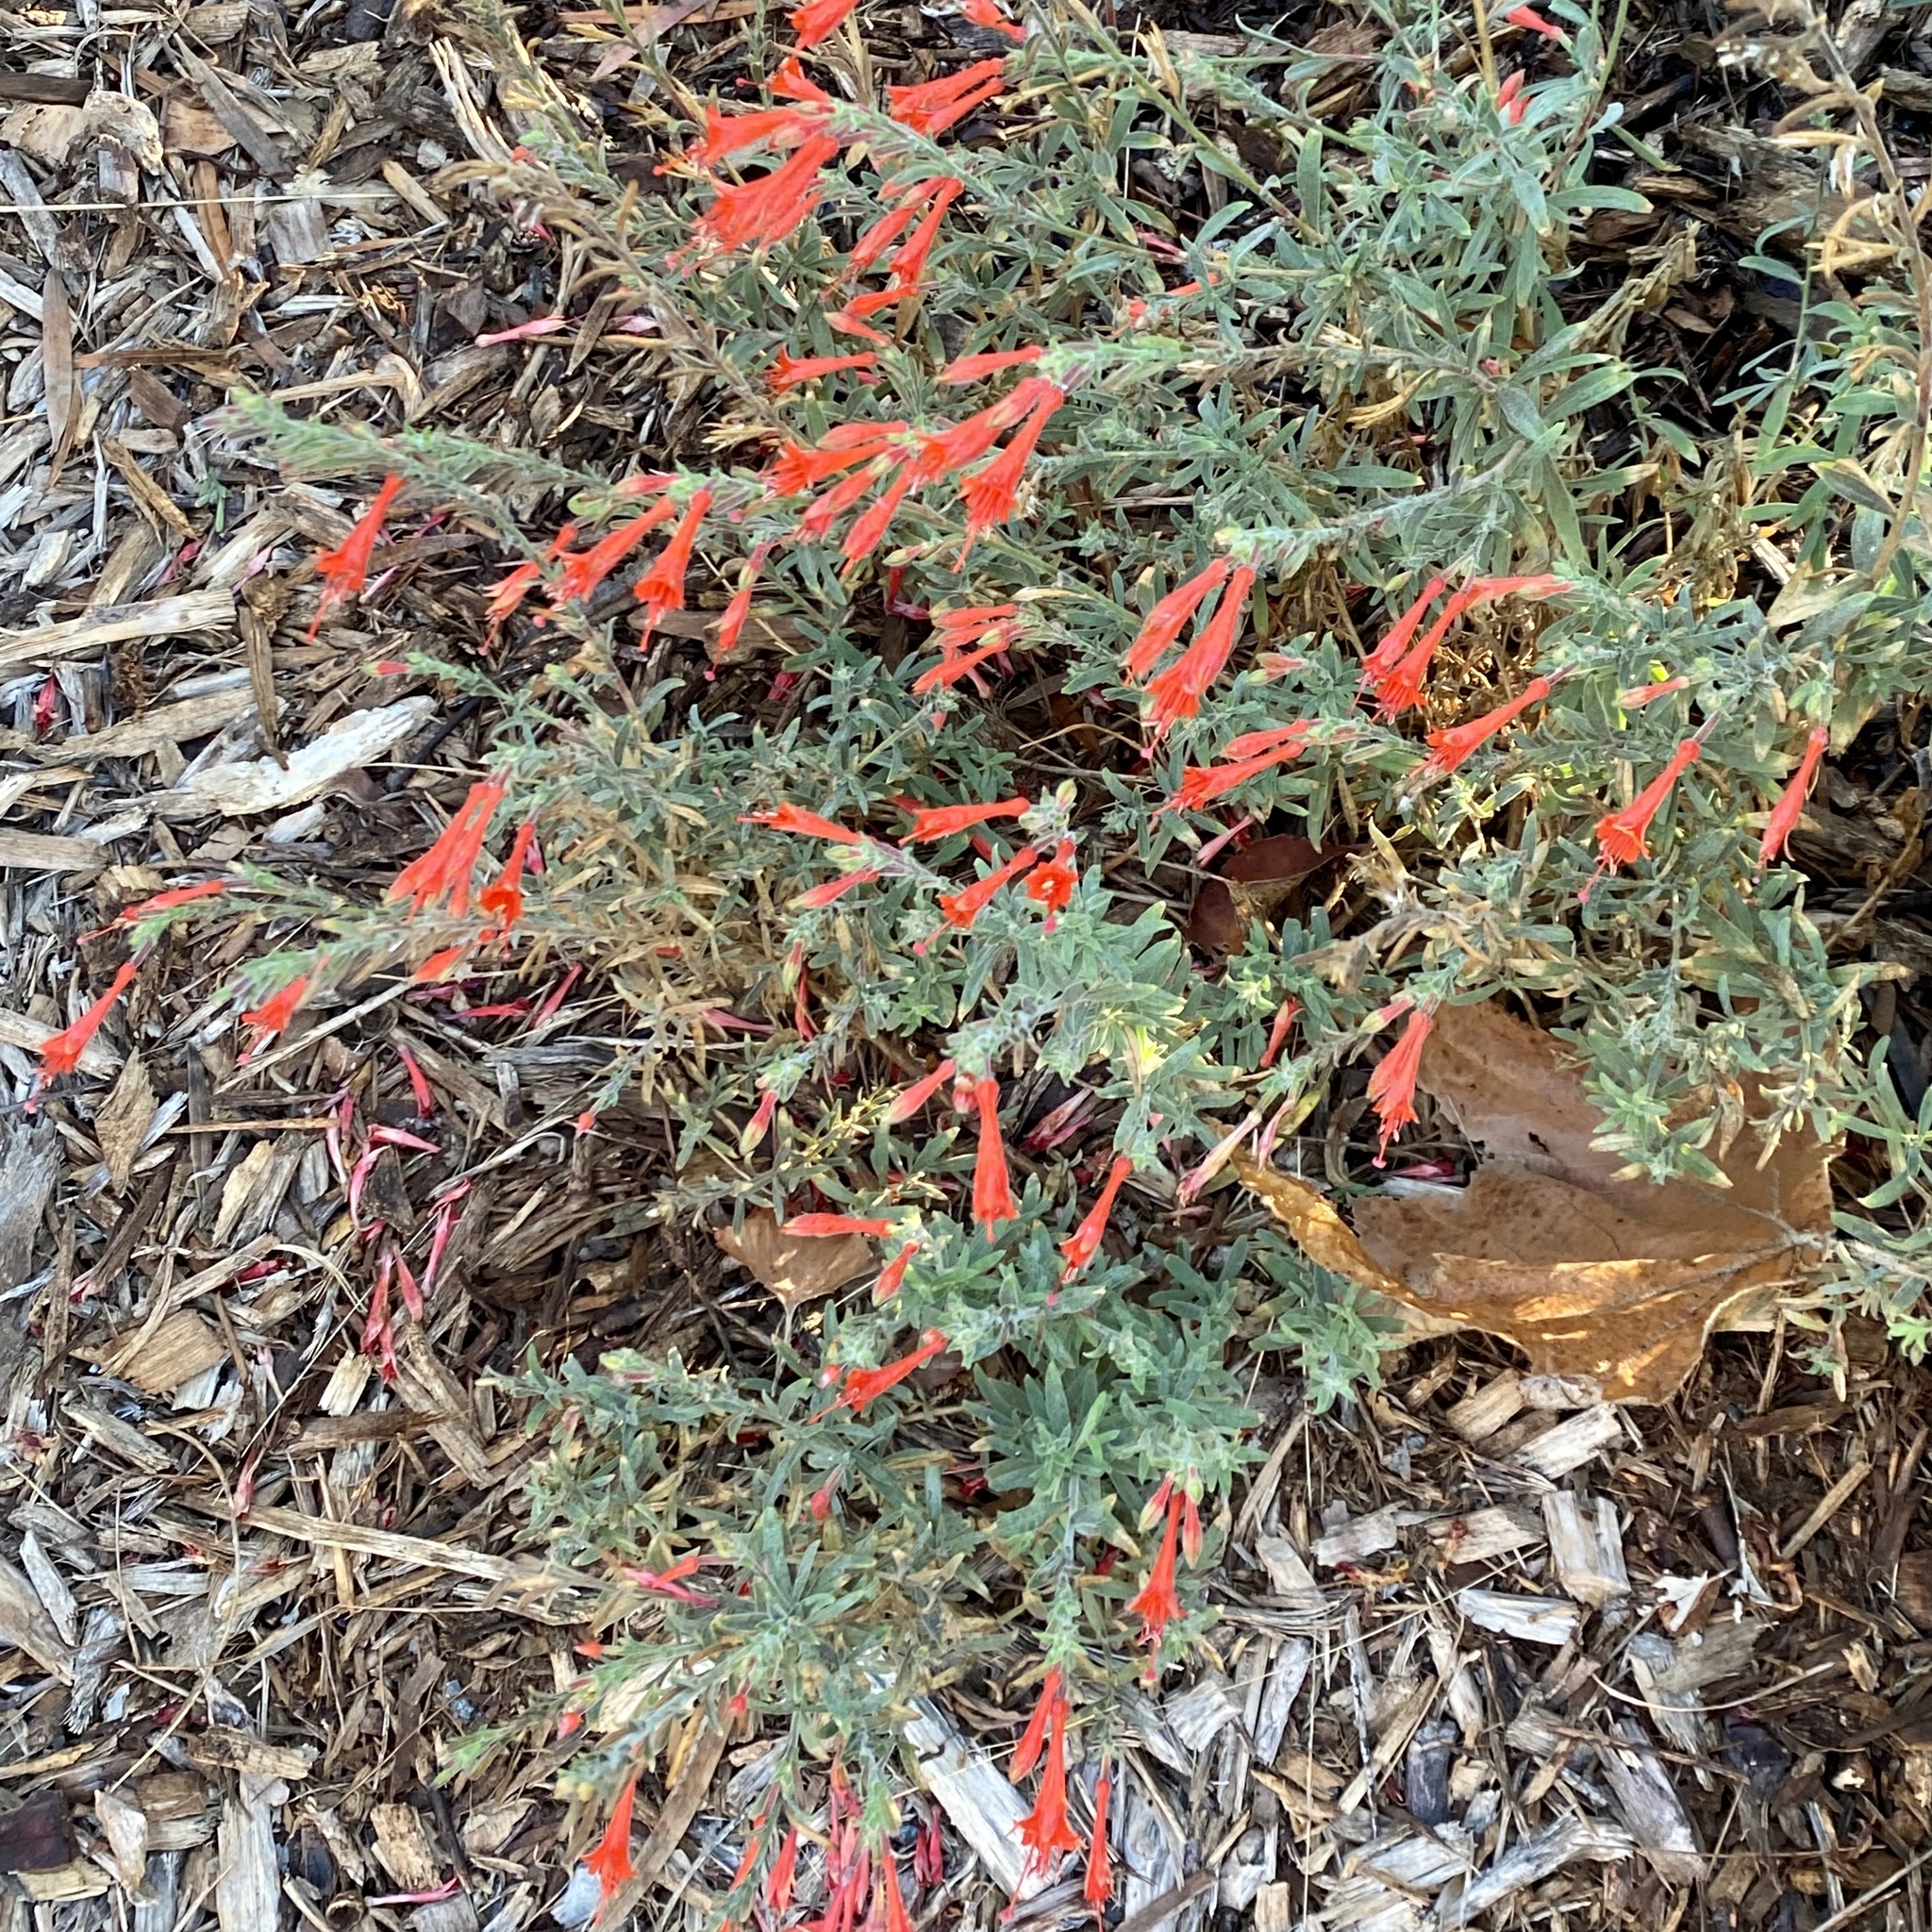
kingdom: Plantae
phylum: Tracheophyta
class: Magnoliopsida
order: Myrtales
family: Onagraceae
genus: Epilobium
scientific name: Epilobium canum
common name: California-fuchsia
